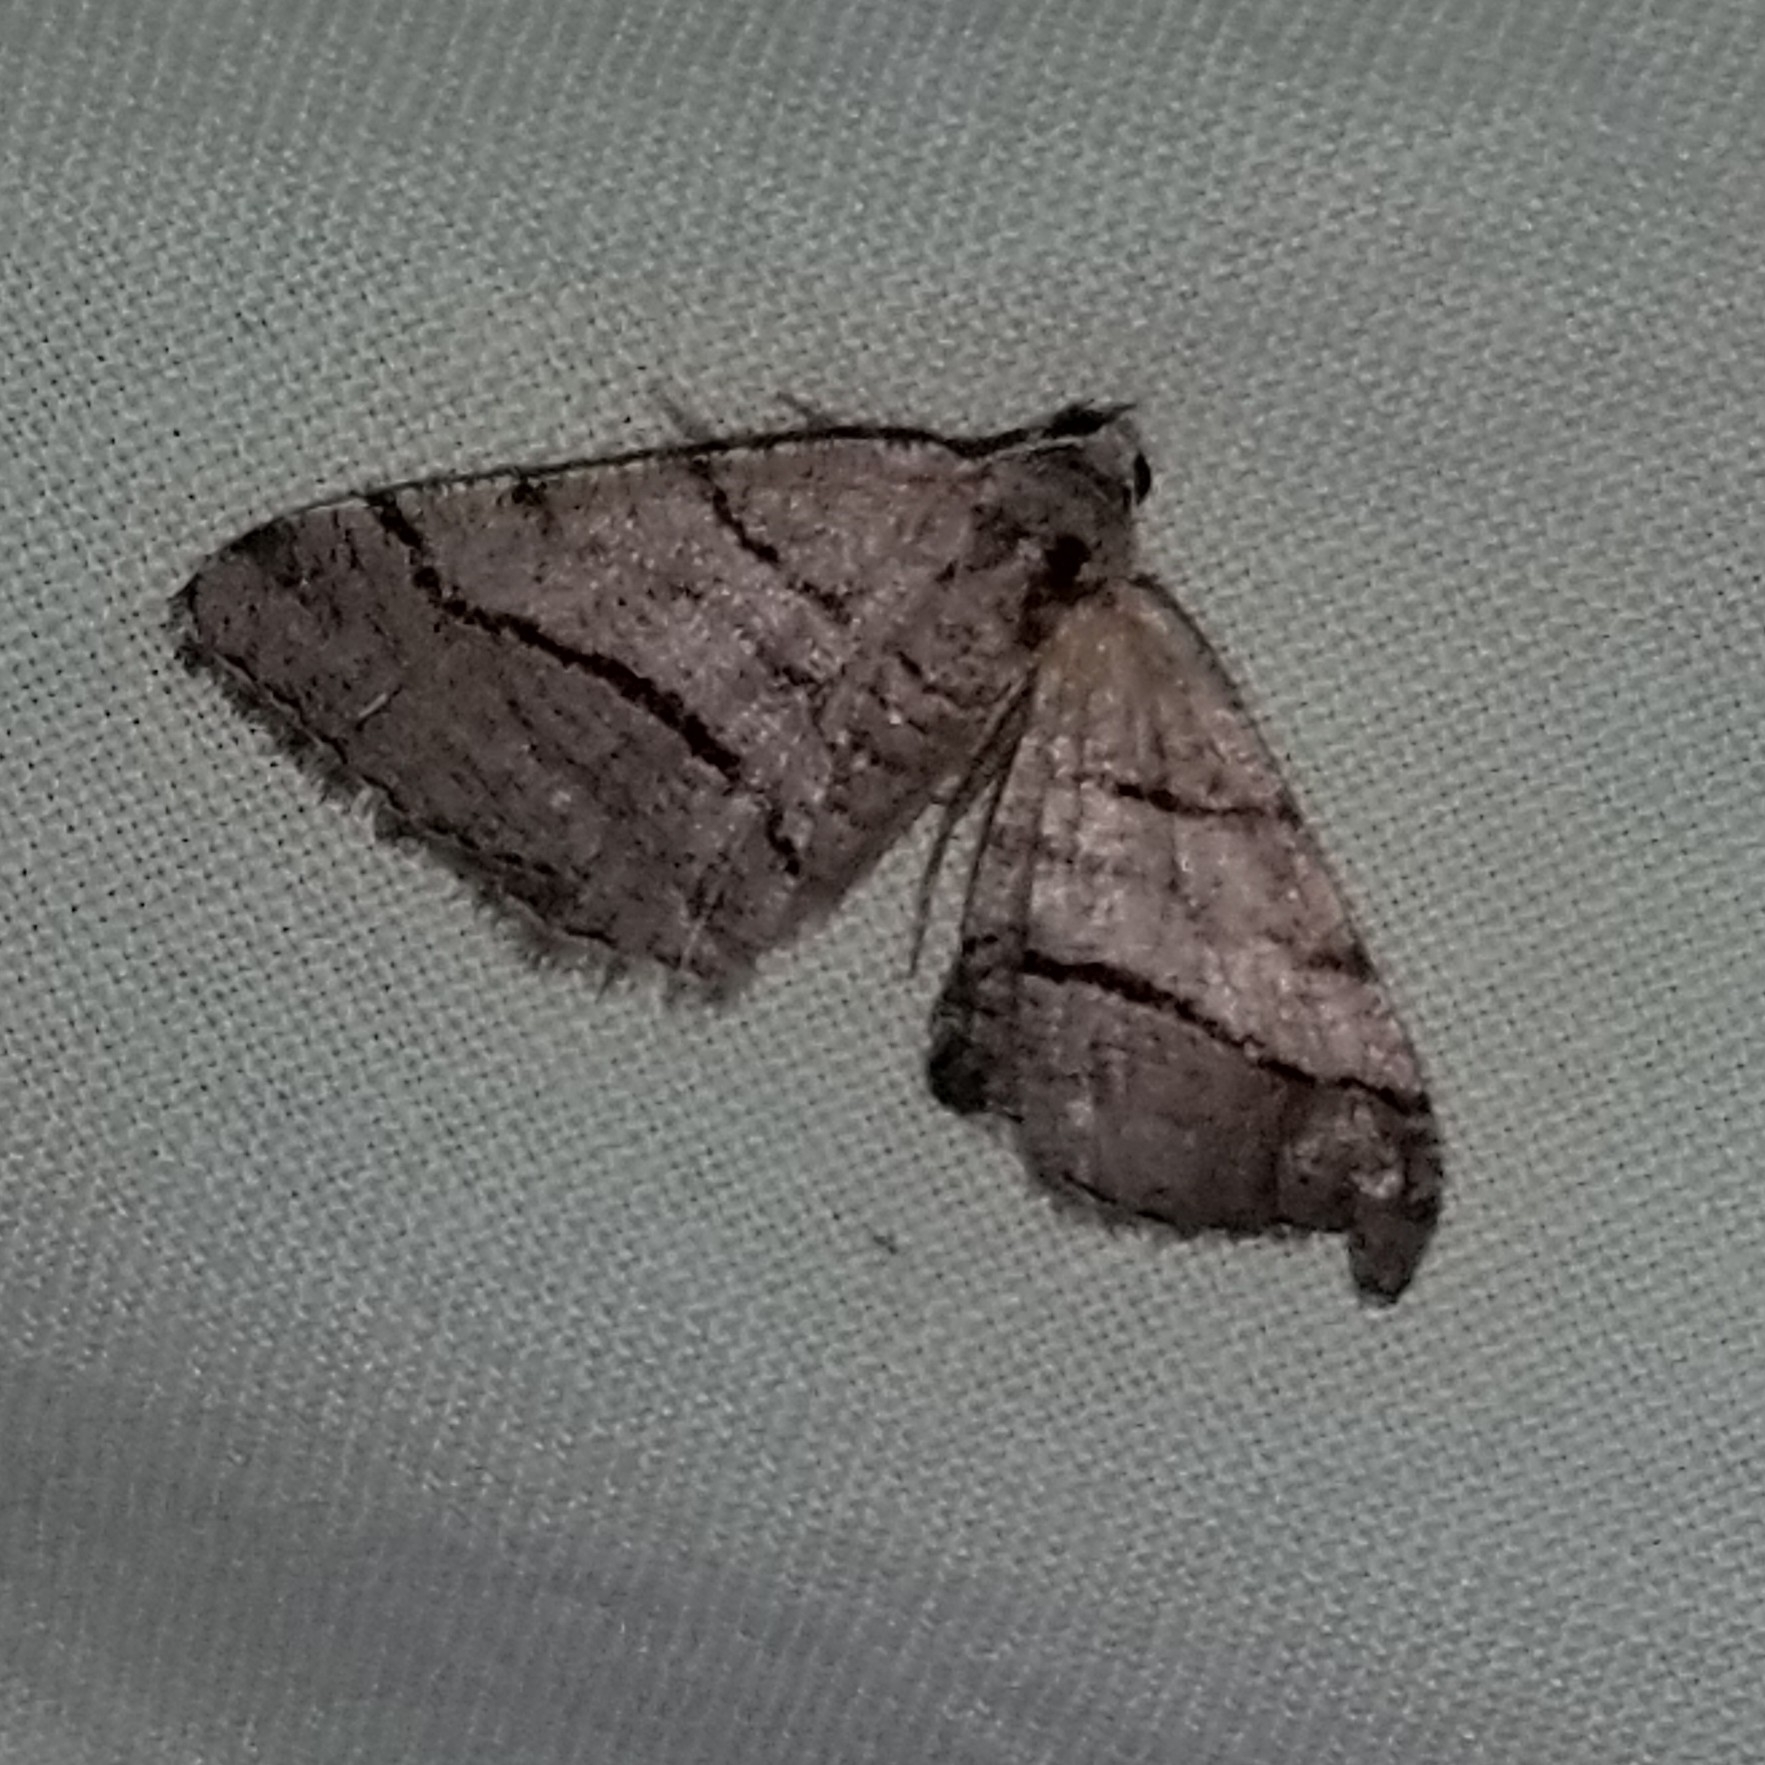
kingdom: Animalia
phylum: Arthropoda
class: Insecta
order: Lepidoptera
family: Geometridae
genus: Digrammia
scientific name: Digrammia continuata
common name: Curve-lined angle
